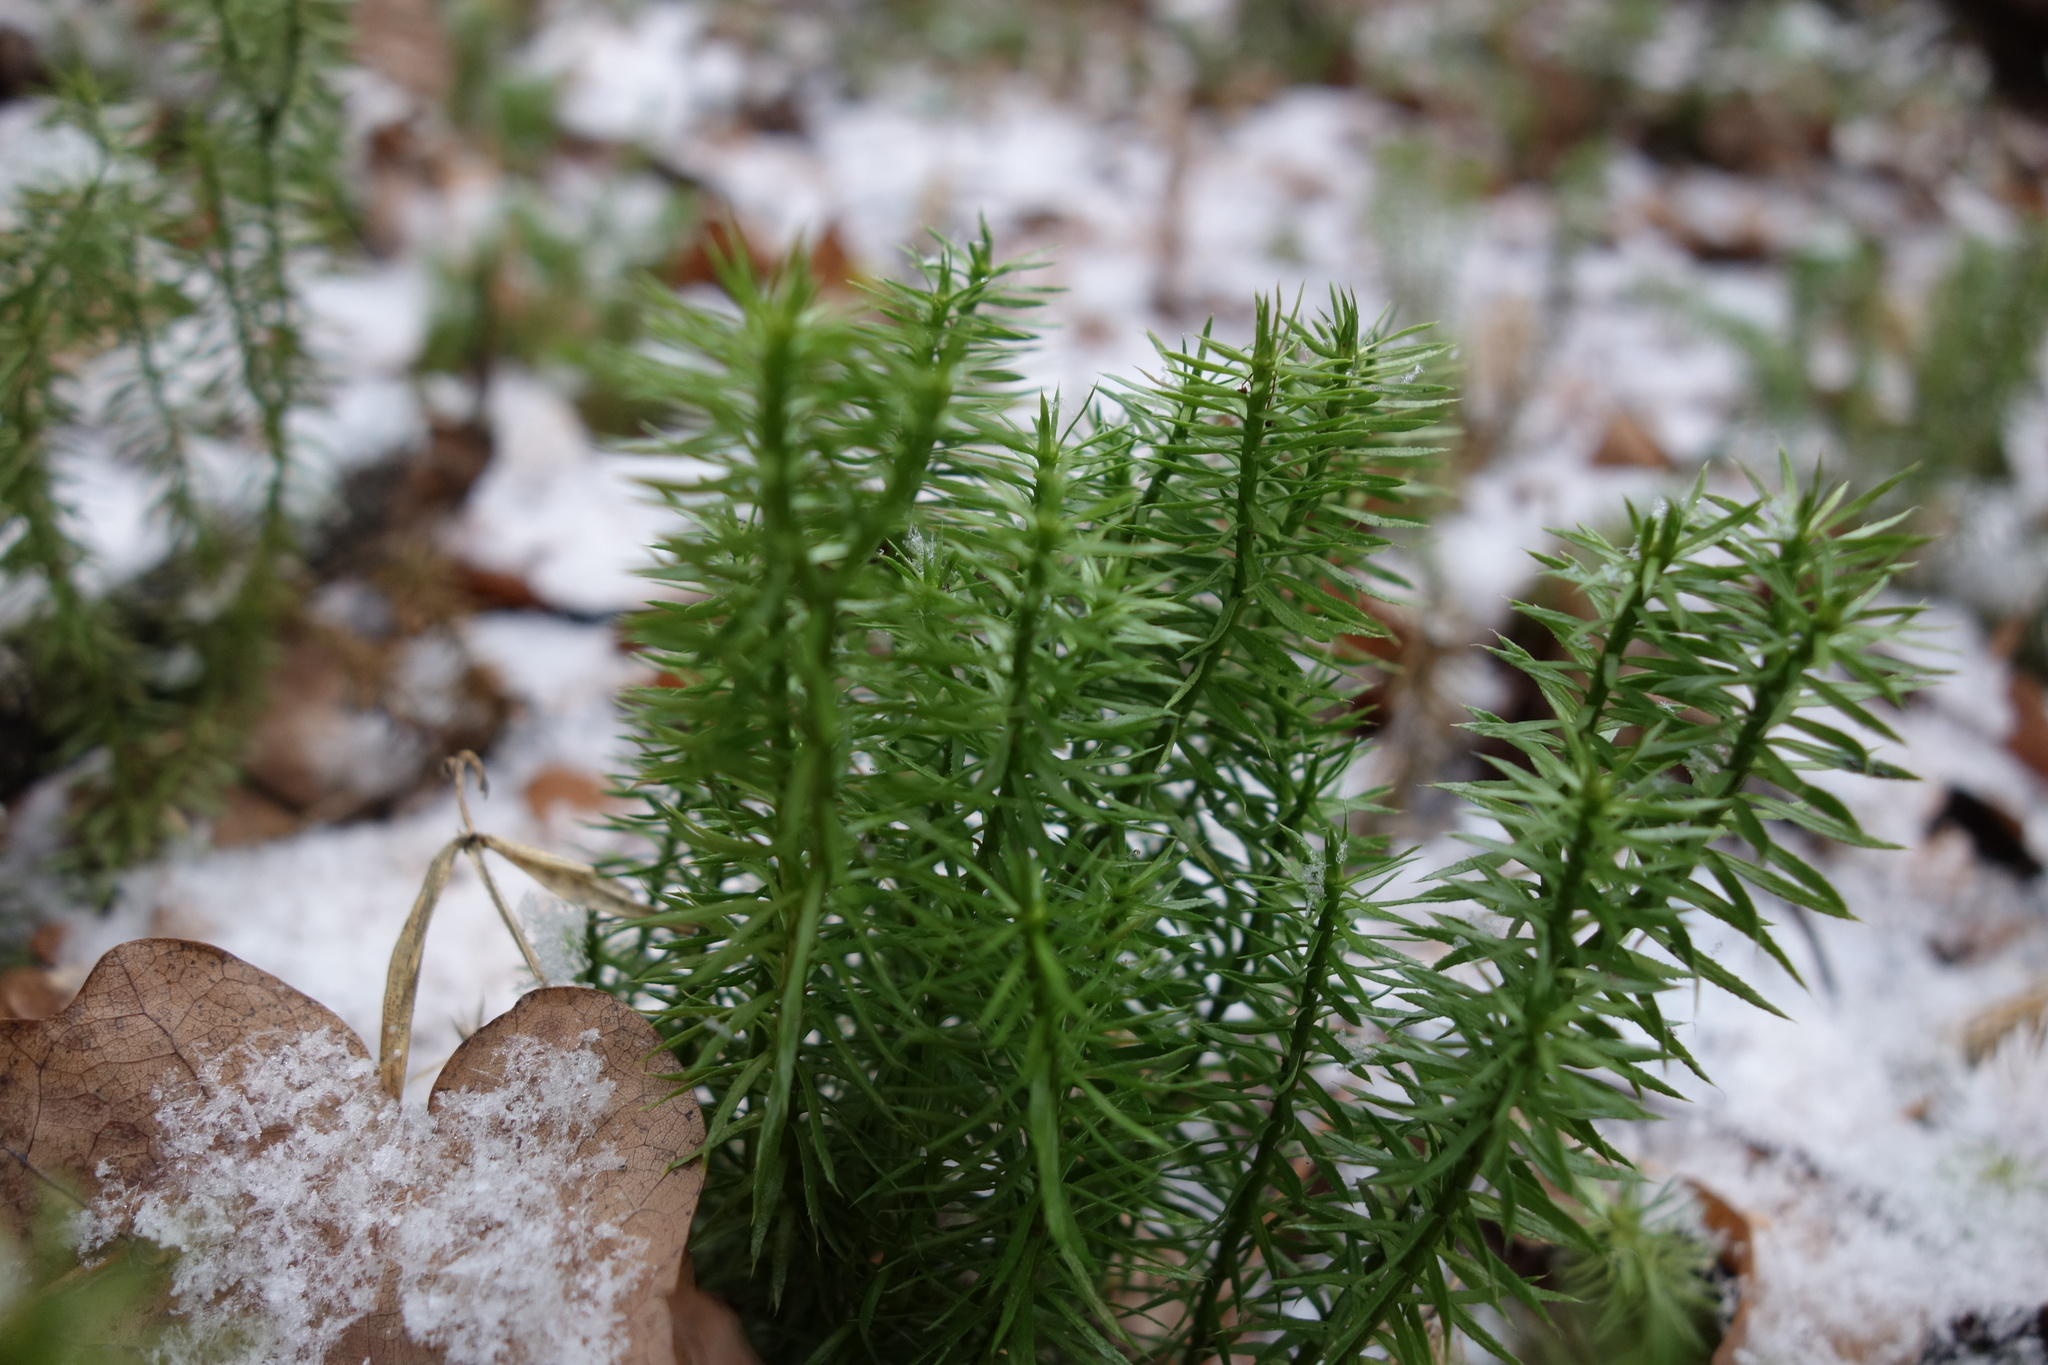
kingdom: Plantae
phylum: Tracheophyta
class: Lycopodiopsida
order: Lycopodiales
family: Lycopodiaceae
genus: Spinulum
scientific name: Spinulum annotinum
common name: Interrupted club-moss
